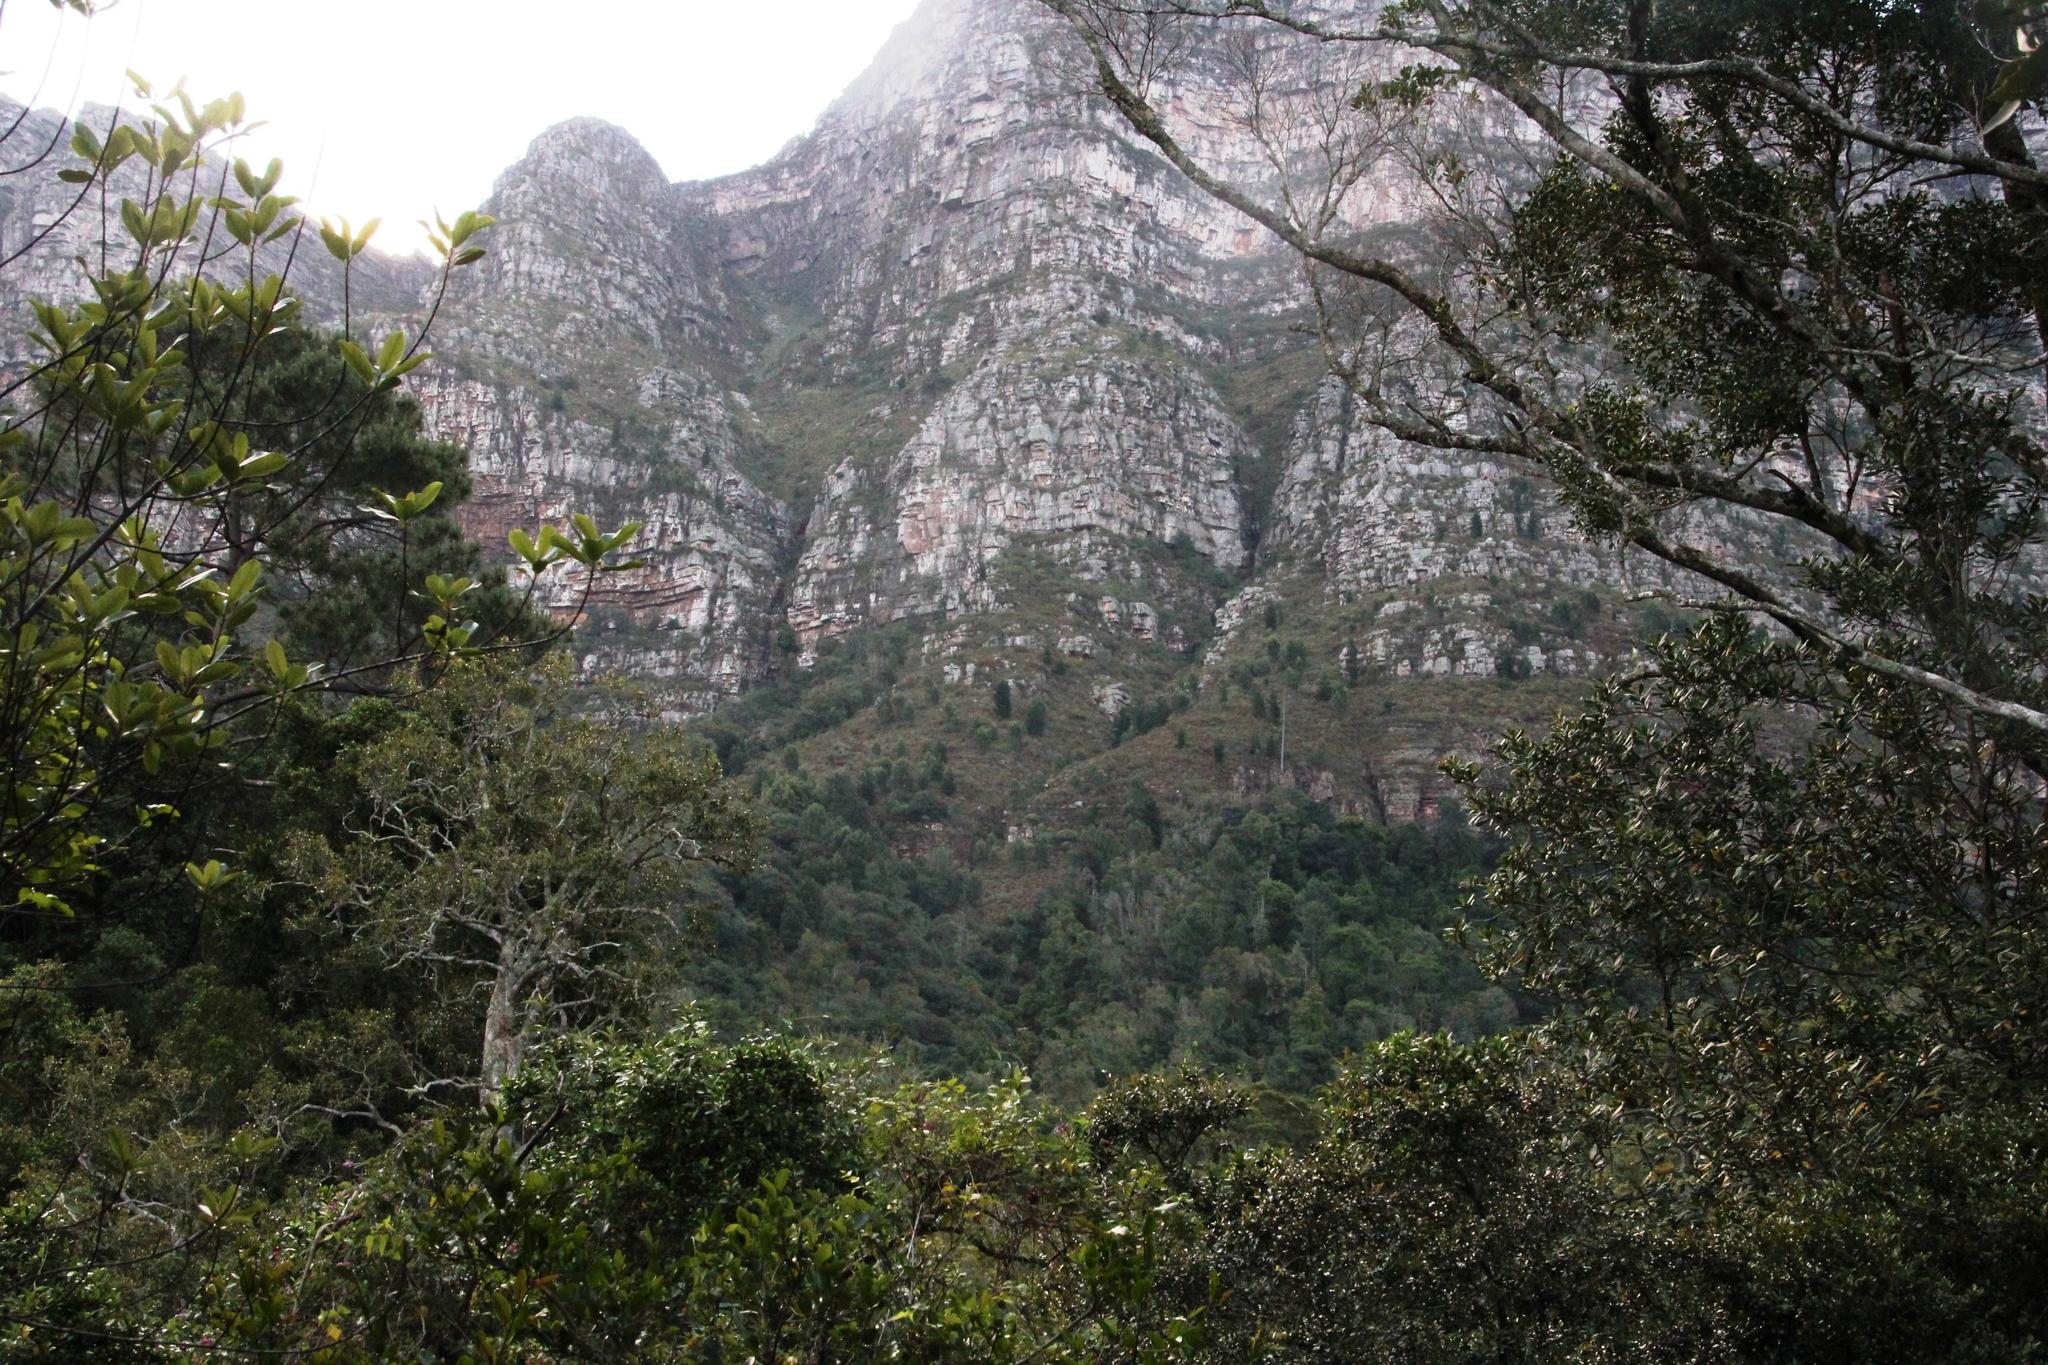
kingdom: Plantae
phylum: Tracheophyta
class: Pinopsida
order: Pinales
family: Pinaceae
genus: Pinus
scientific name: Pinus radiata
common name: Monterey pine
